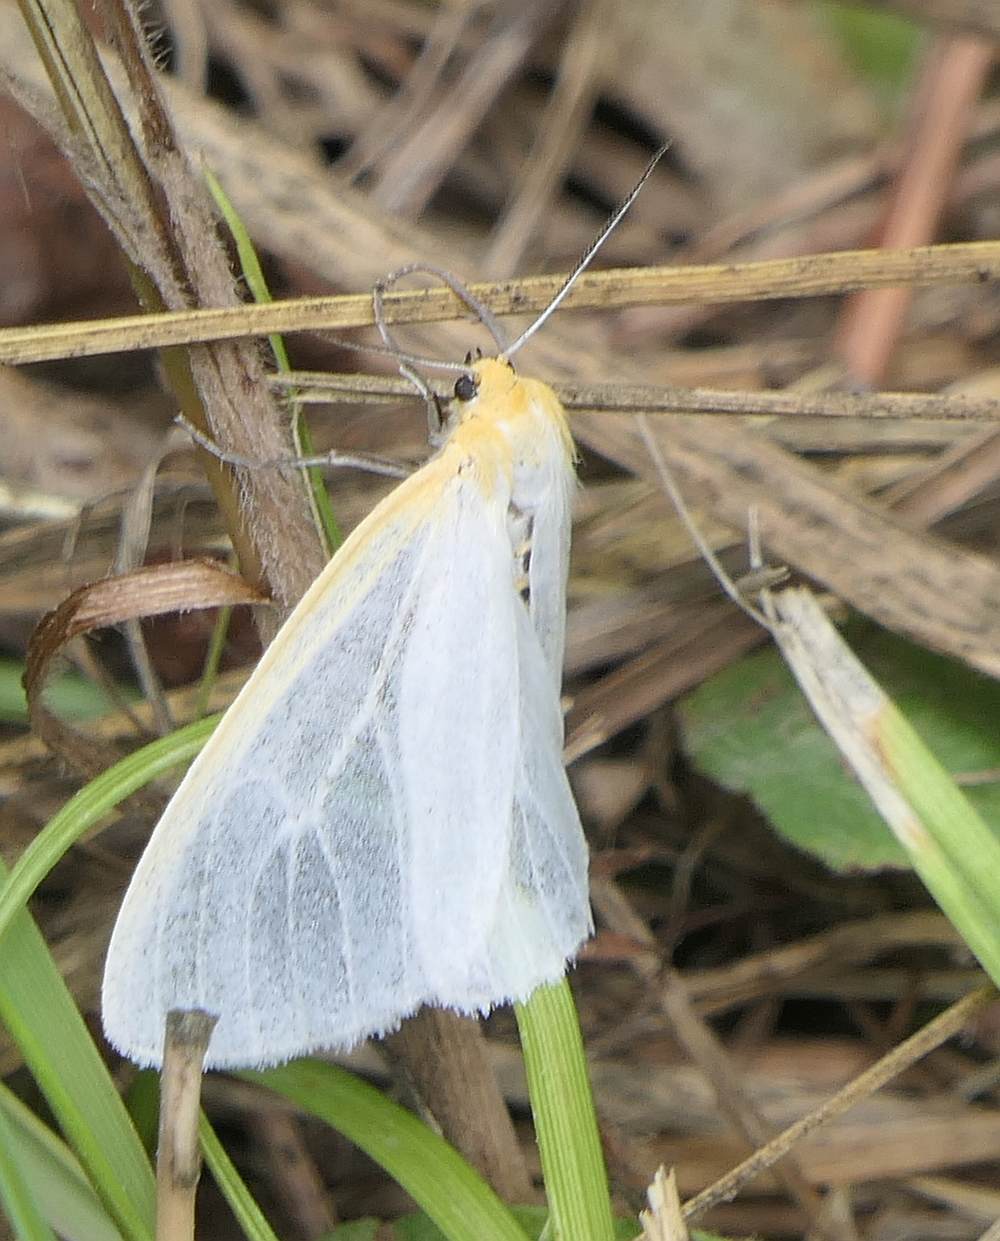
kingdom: Animalia
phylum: Arthropoda
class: Insecta
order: Lepidoptera
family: Erebidae
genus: Cycnia
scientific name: Cycnia tenera
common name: Delicate cycnia moth
